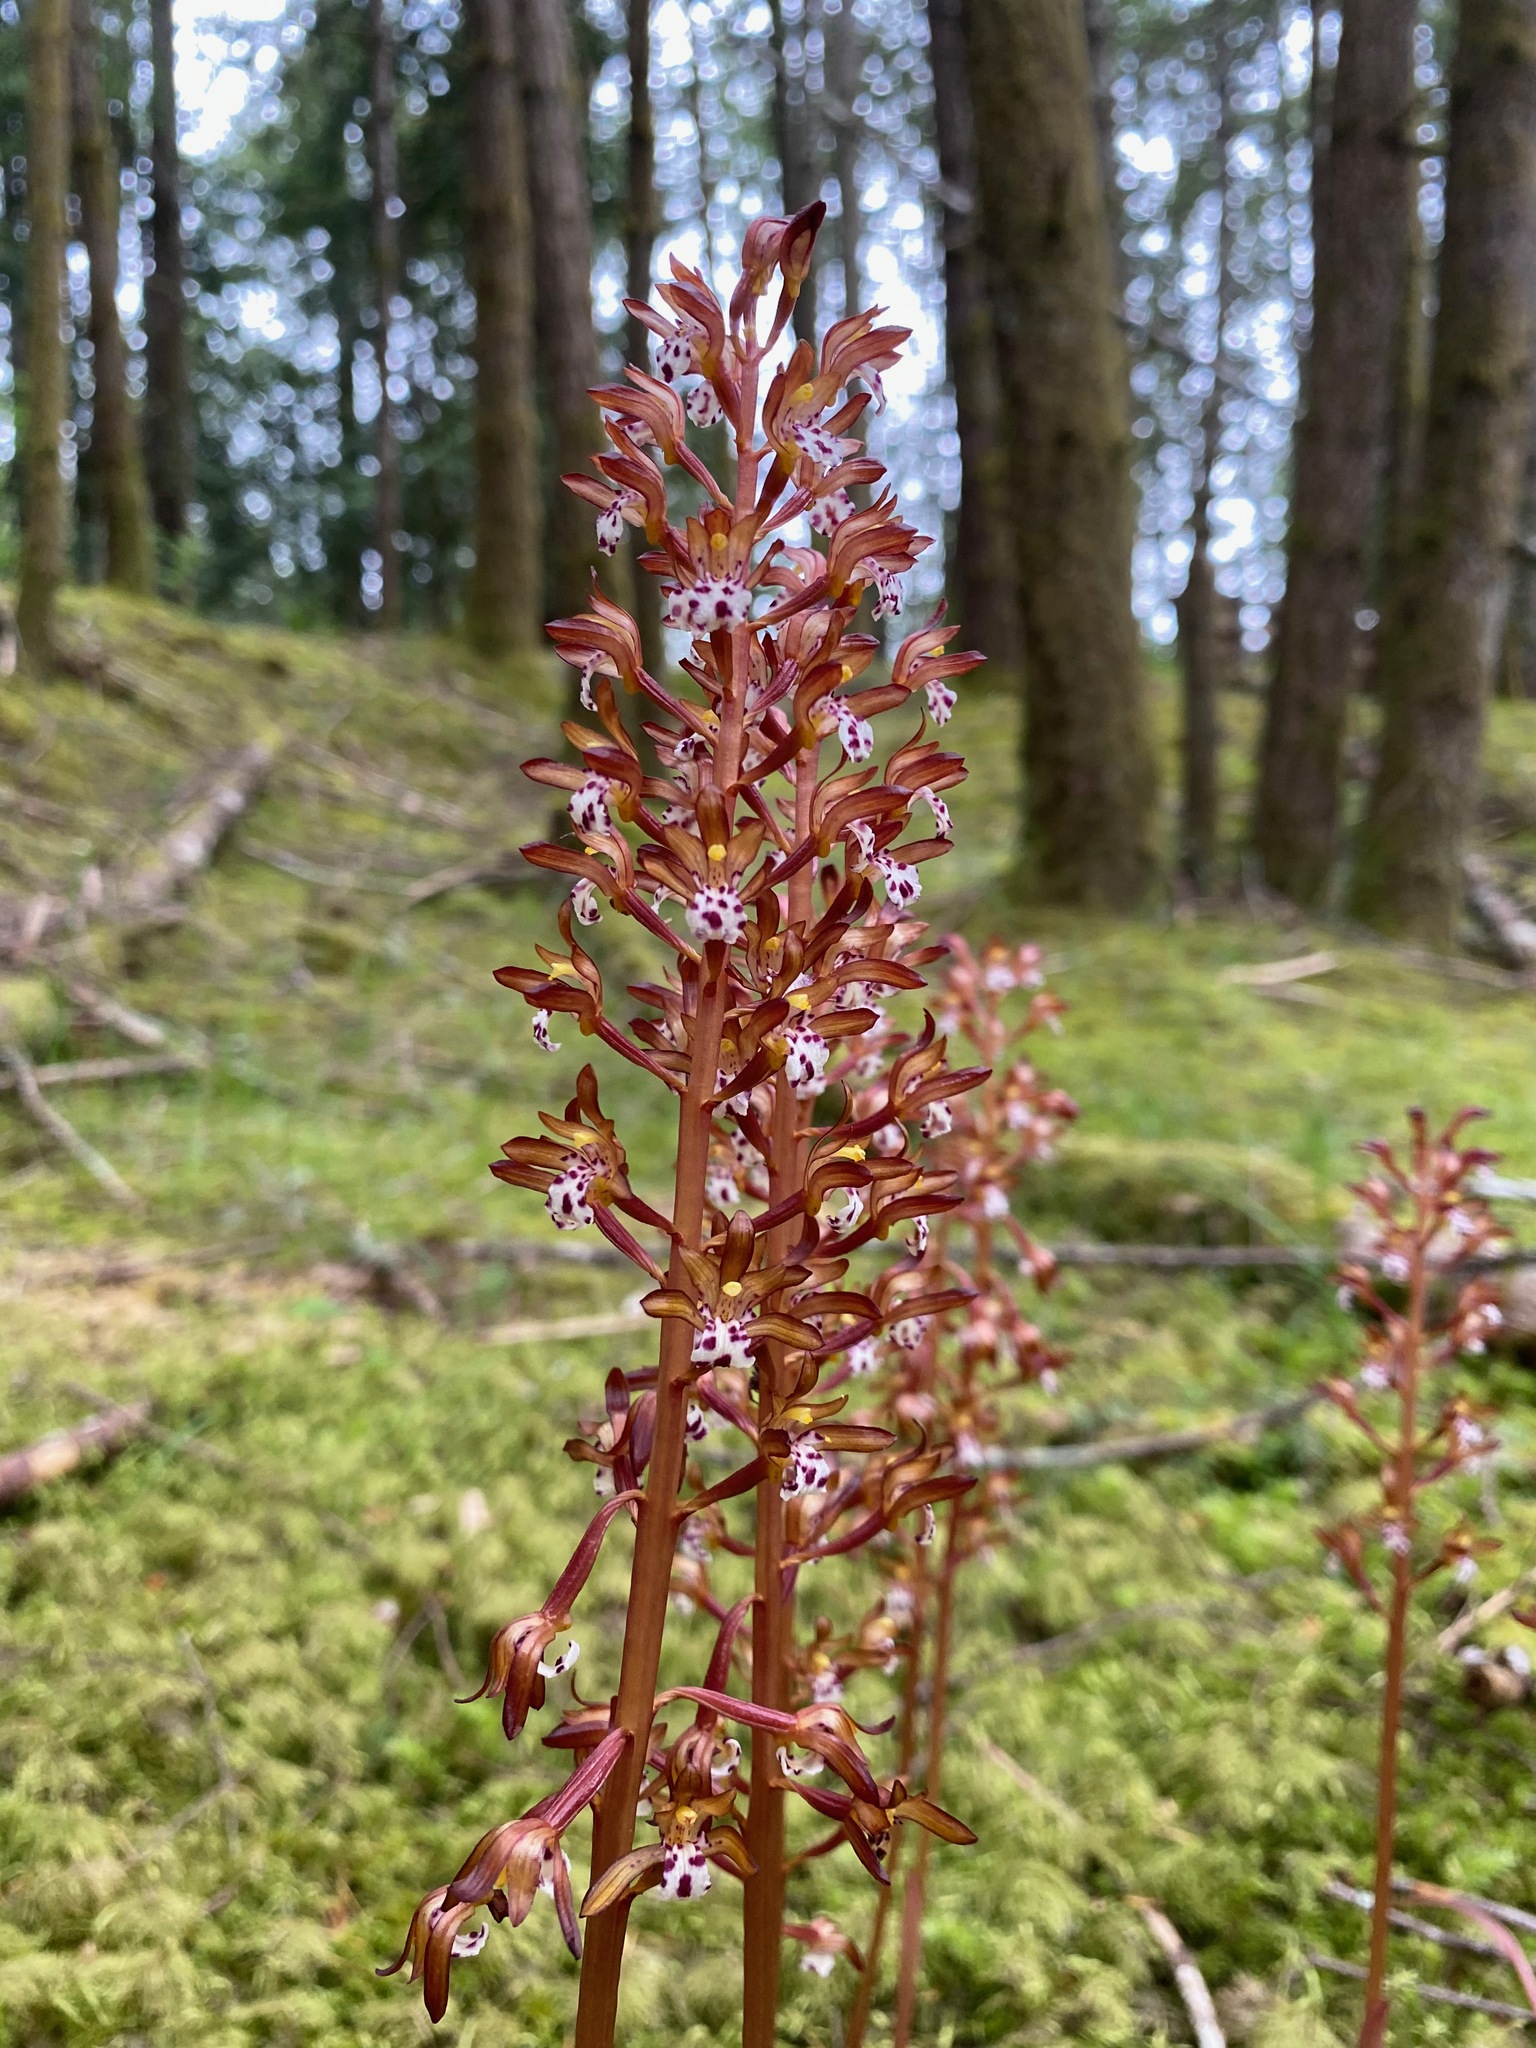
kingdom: Plantae
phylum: Tracheophyta
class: Liliopsida
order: Asparagales
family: Orchidaceae
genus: Corallorhiza
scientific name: Corallorhiza maculata
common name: Spotted coralroot
